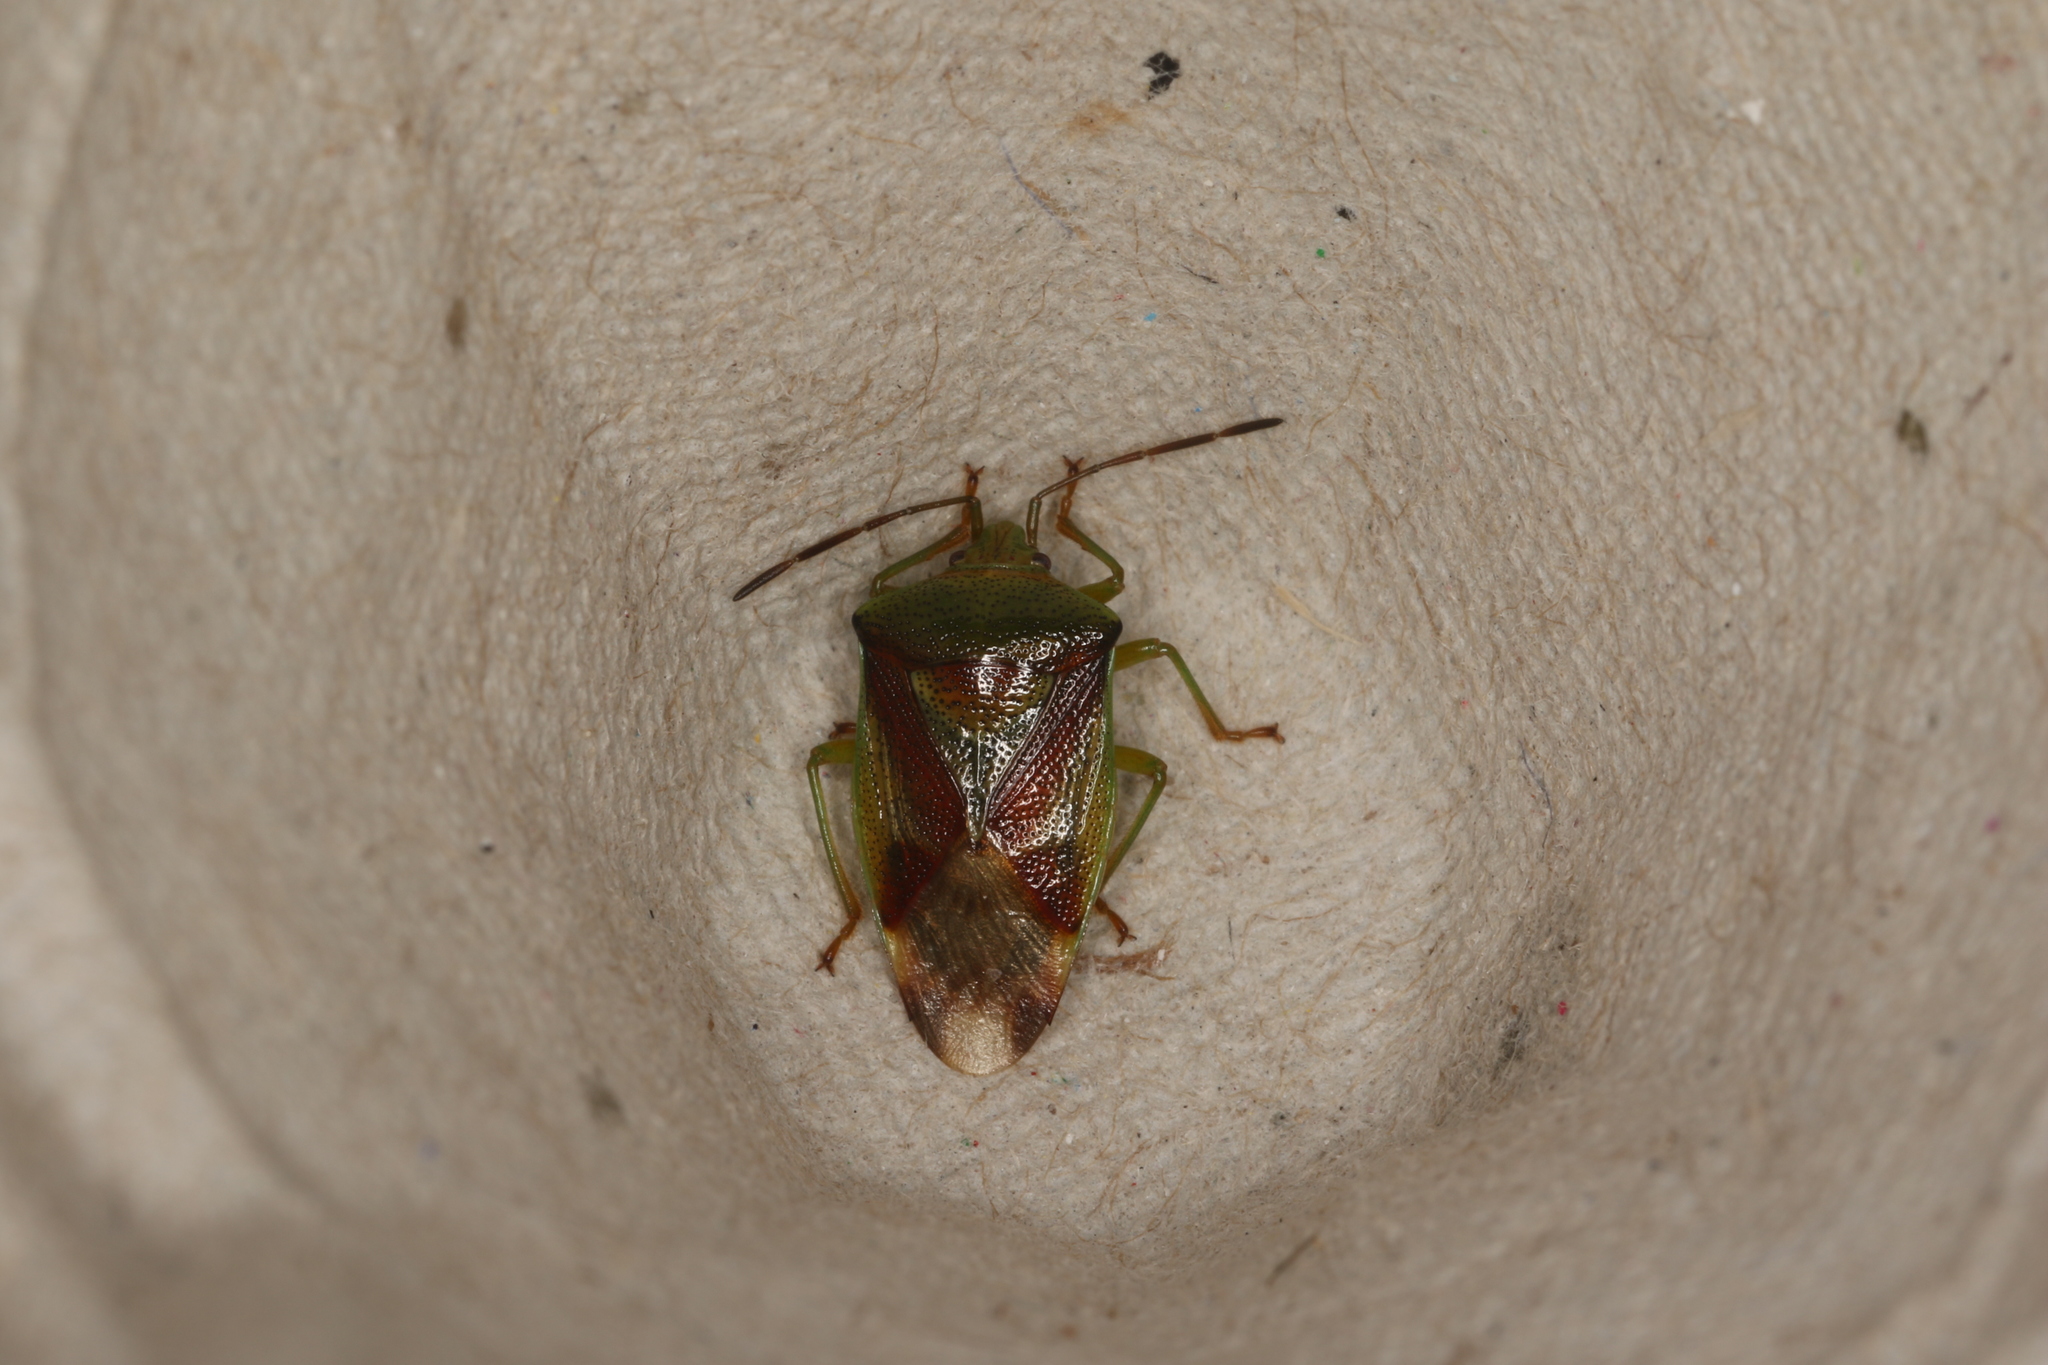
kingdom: Animalia
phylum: Arthropoda
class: Insecta
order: Hemiptera
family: Acanthosomatidae
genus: Elasmostethus
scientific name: Elasmostethus interstinctus
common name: Birch shieldbug
